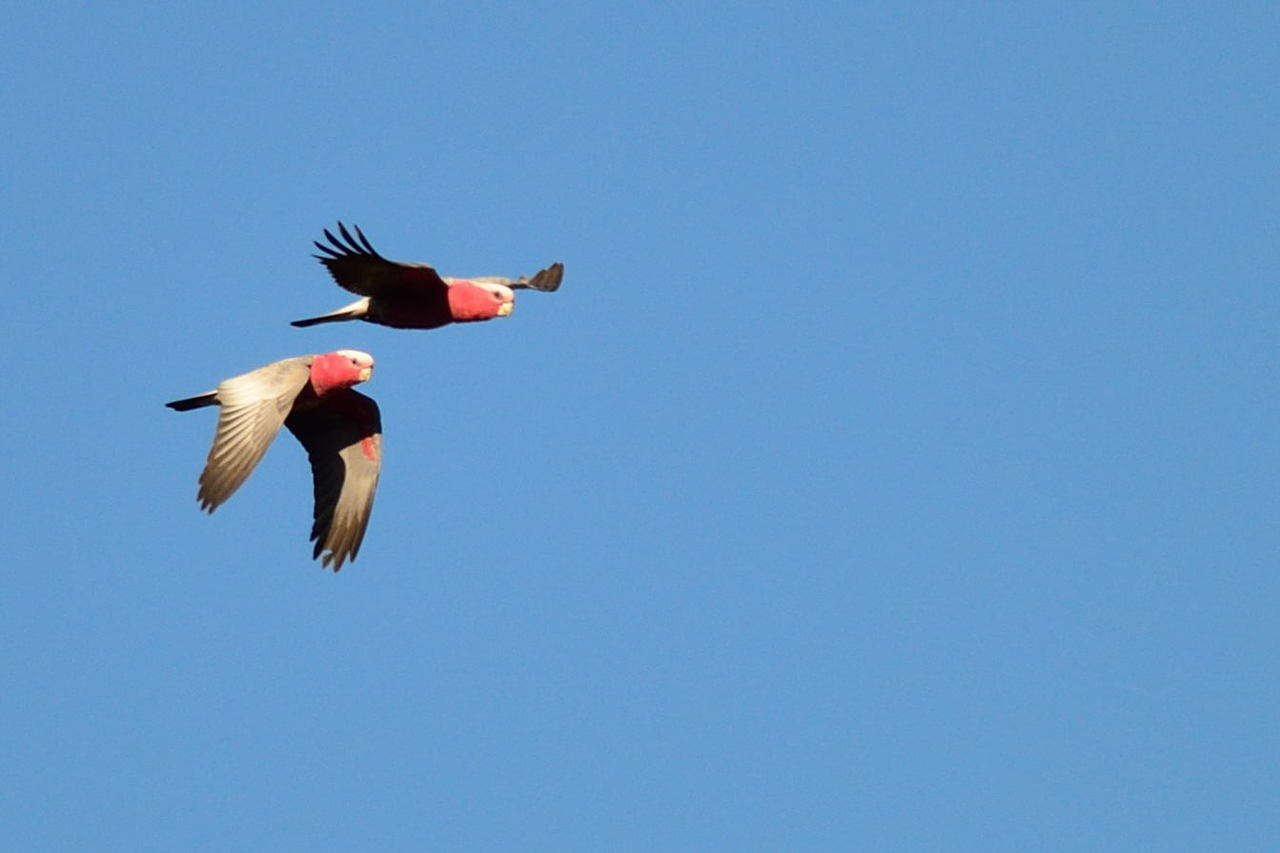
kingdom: Animalia
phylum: Chordata
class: Aves
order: Psittaciformes
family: Psittacidae
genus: Eolophus
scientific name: Eolophus roseicapilla
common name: Galah
